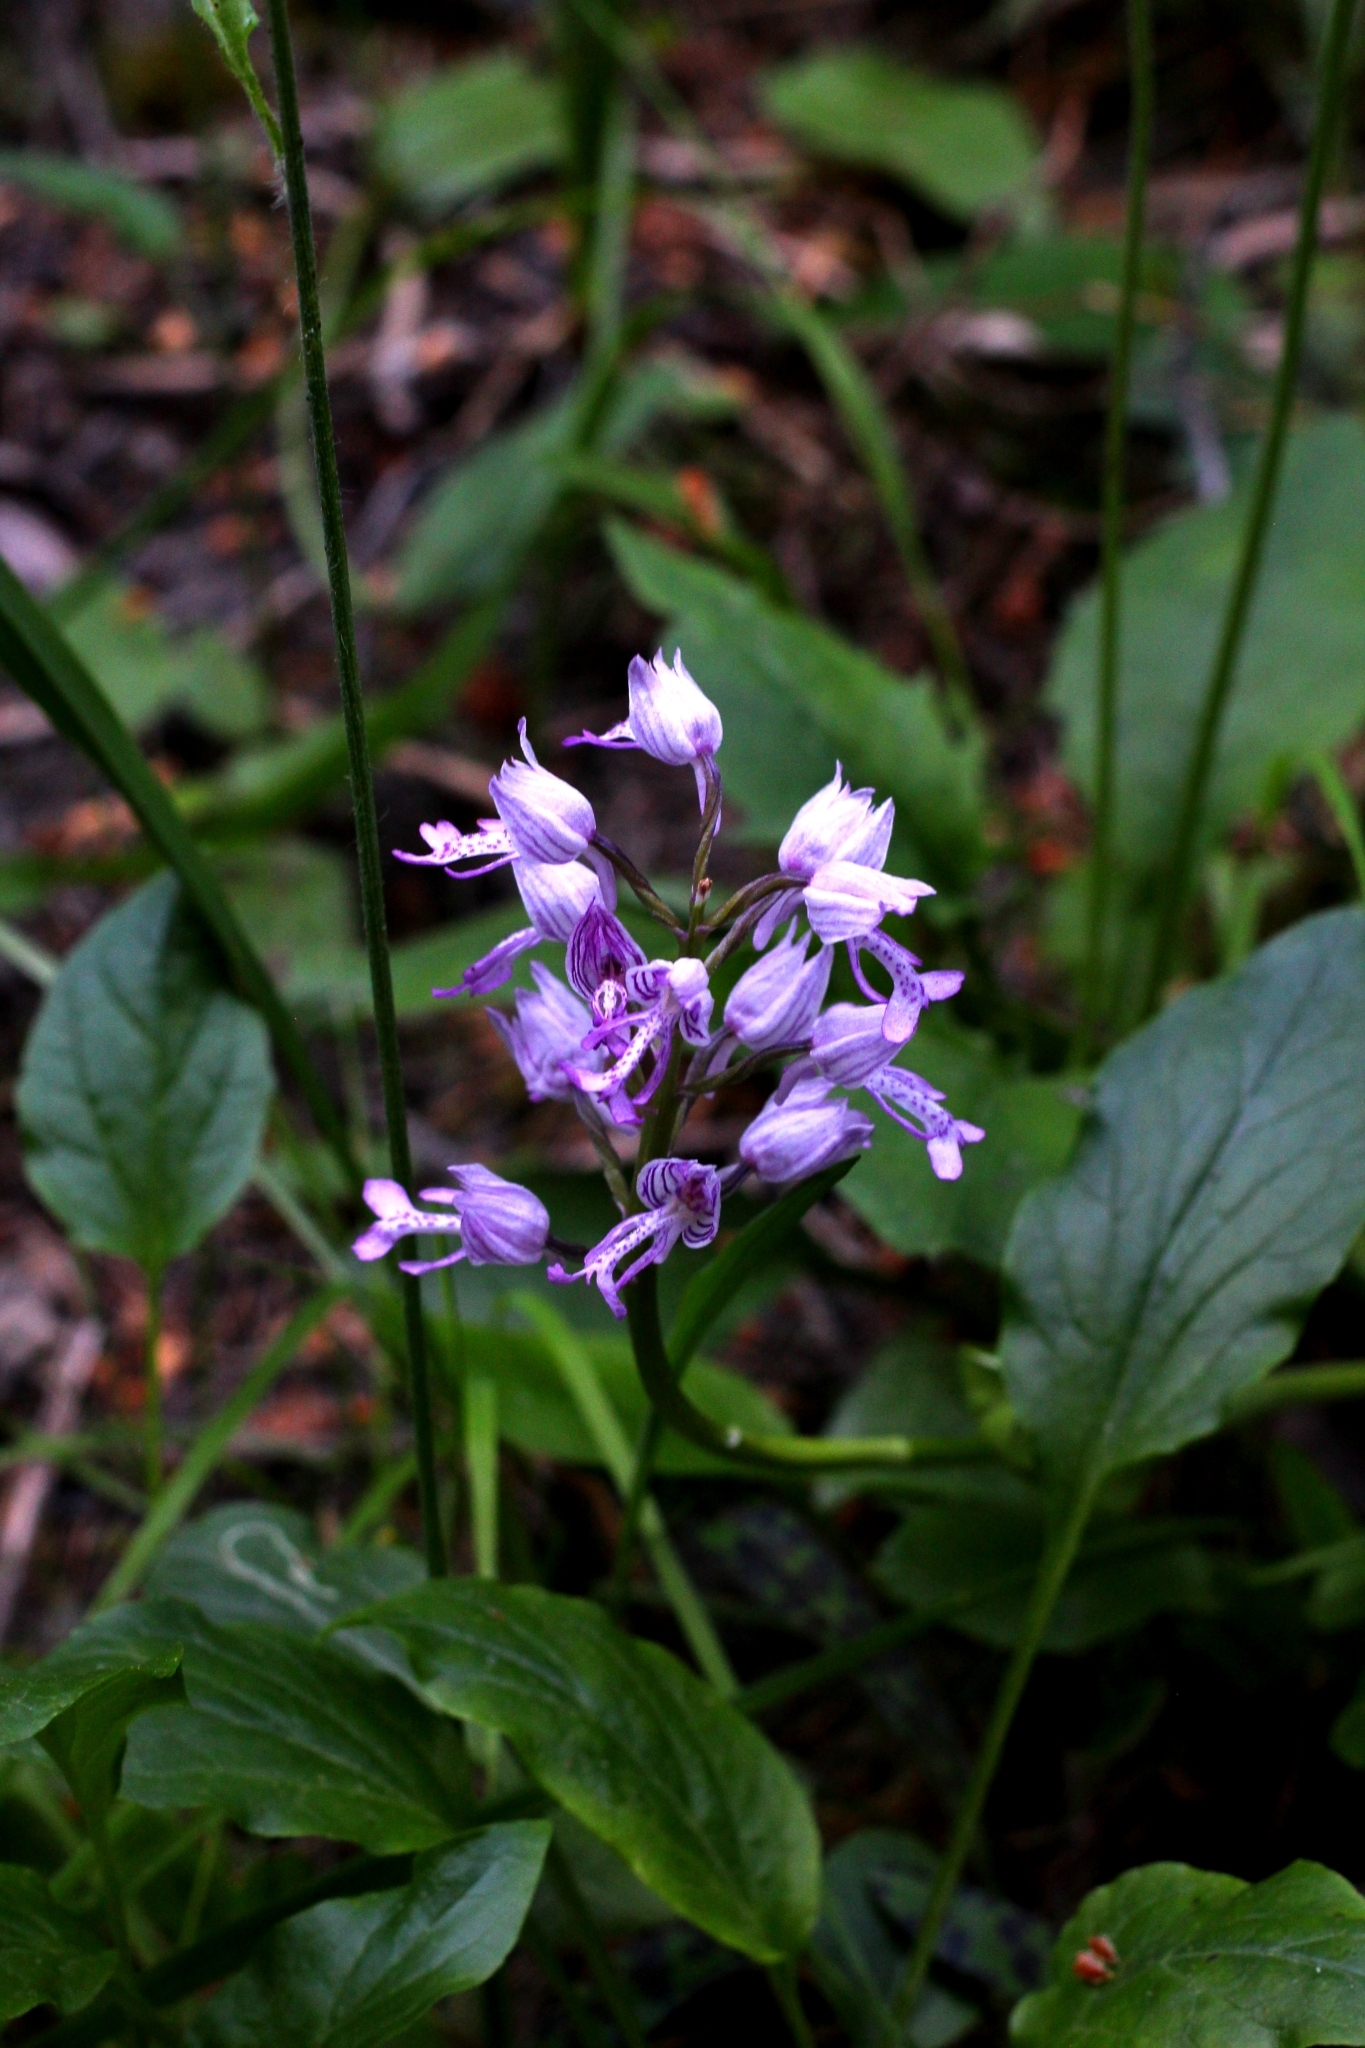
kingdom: Plantae
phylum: Tracheophyta
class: Liliopsida
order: Asparagales
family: Orchidaceae
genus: Orchis
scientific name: Orchis militaris
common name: Military orchid
